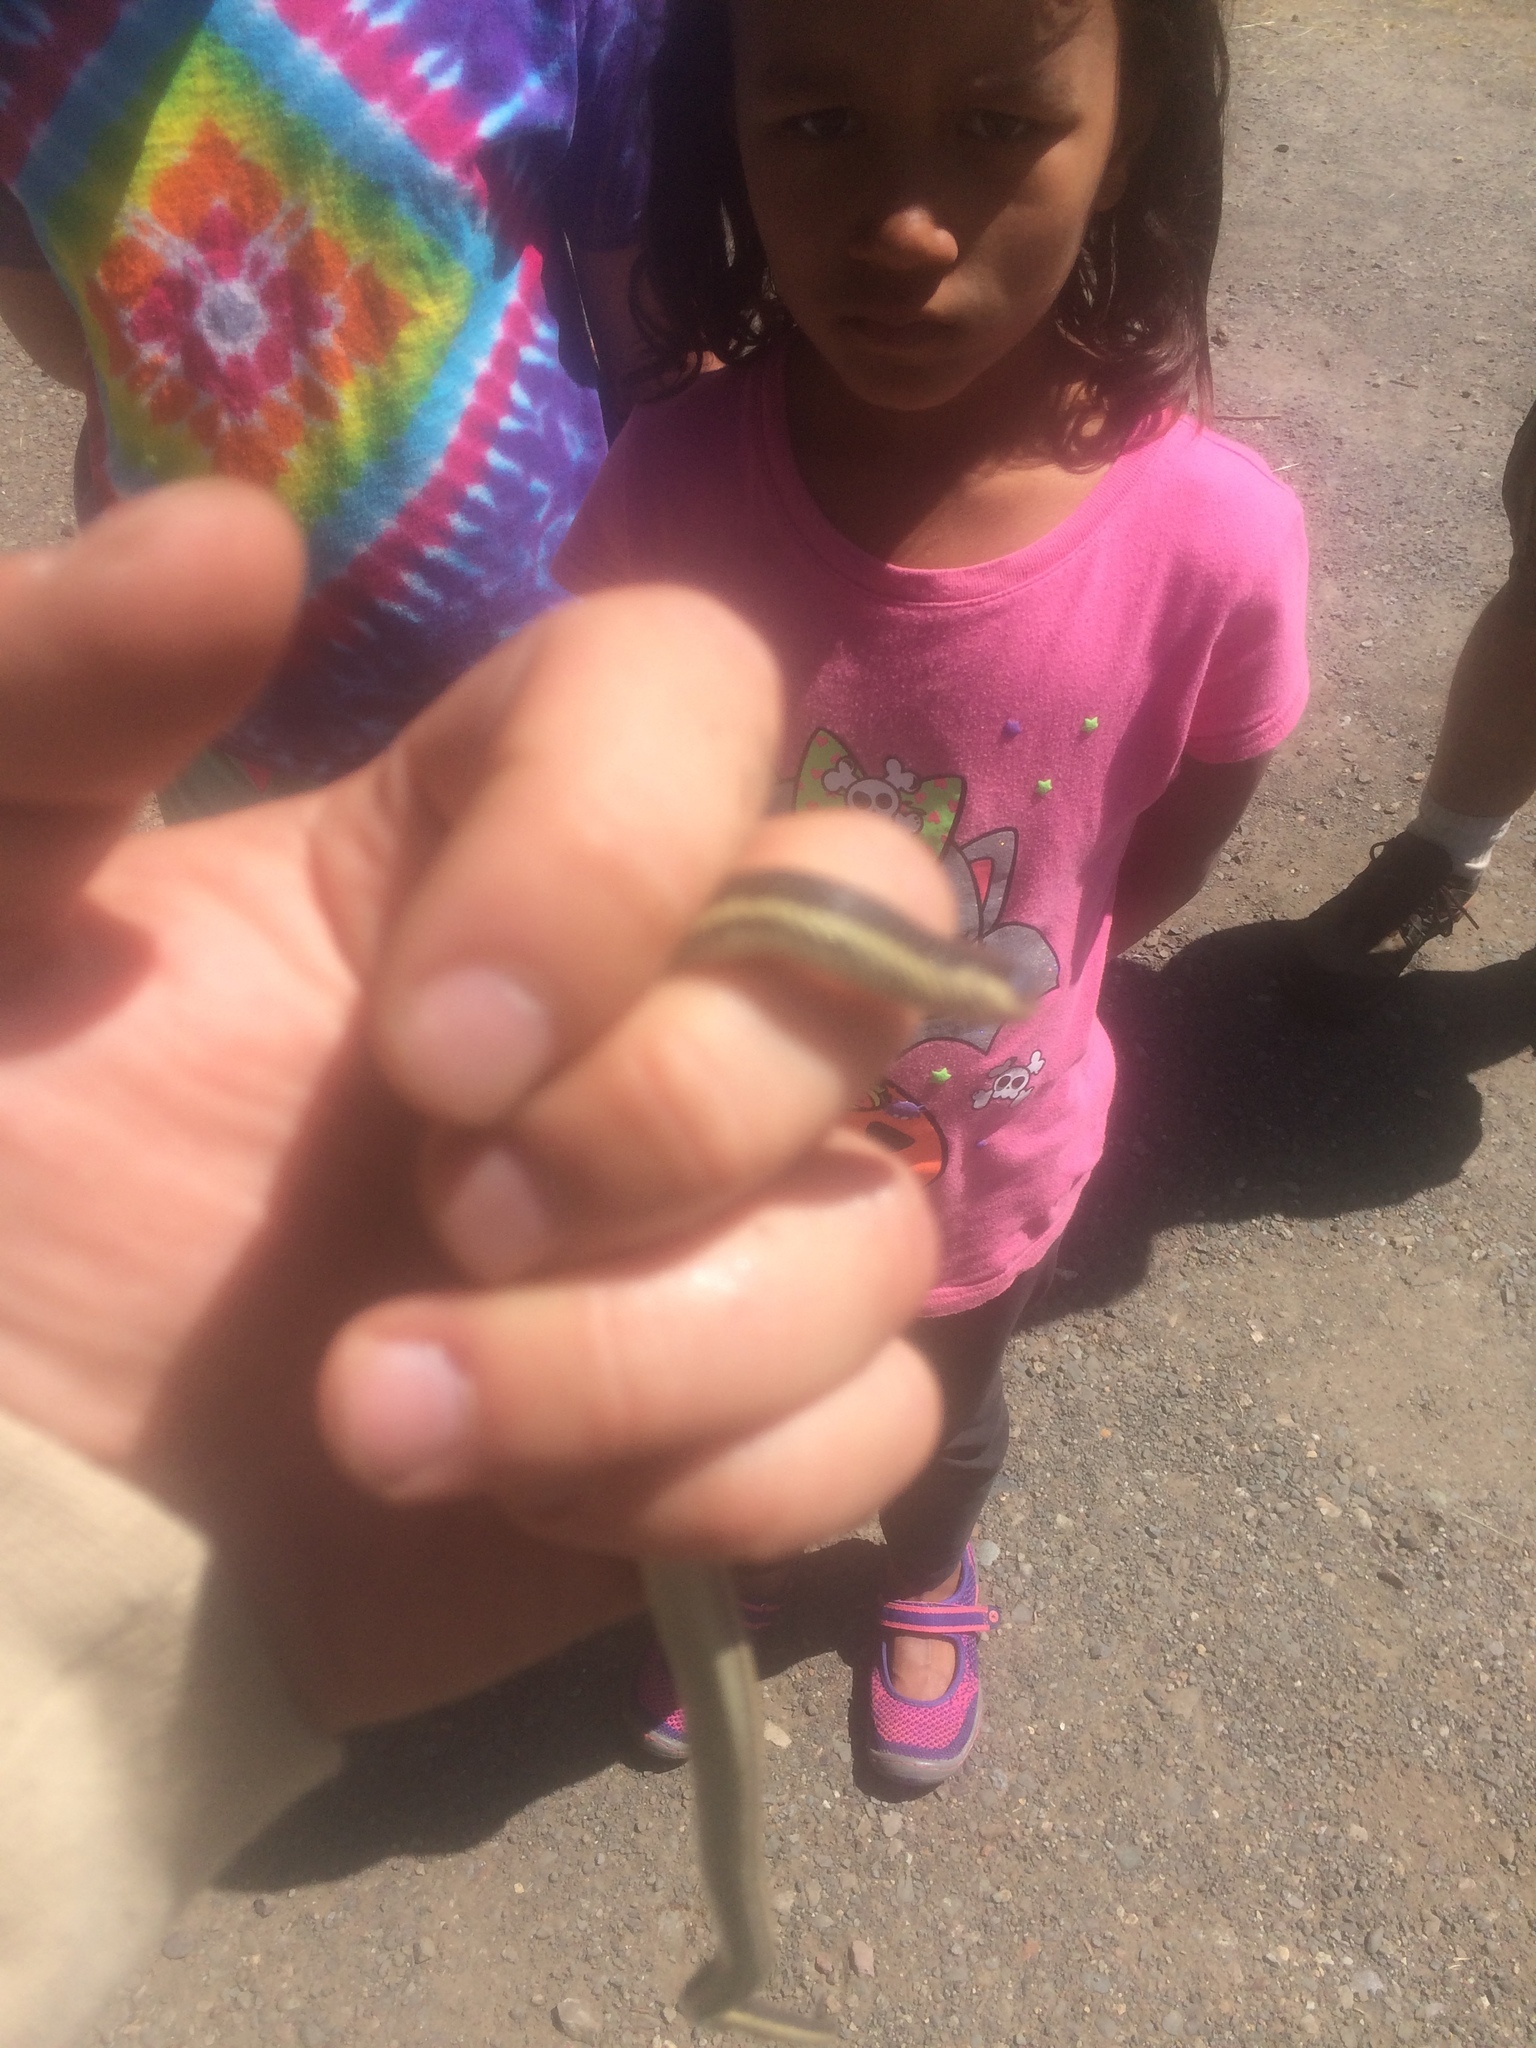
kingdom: Animalia
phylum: Chordata
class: Squamata
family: Colubridae
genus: Thamnophis
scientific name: Thamnophis elegans
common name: Western terrestrial garter snake
